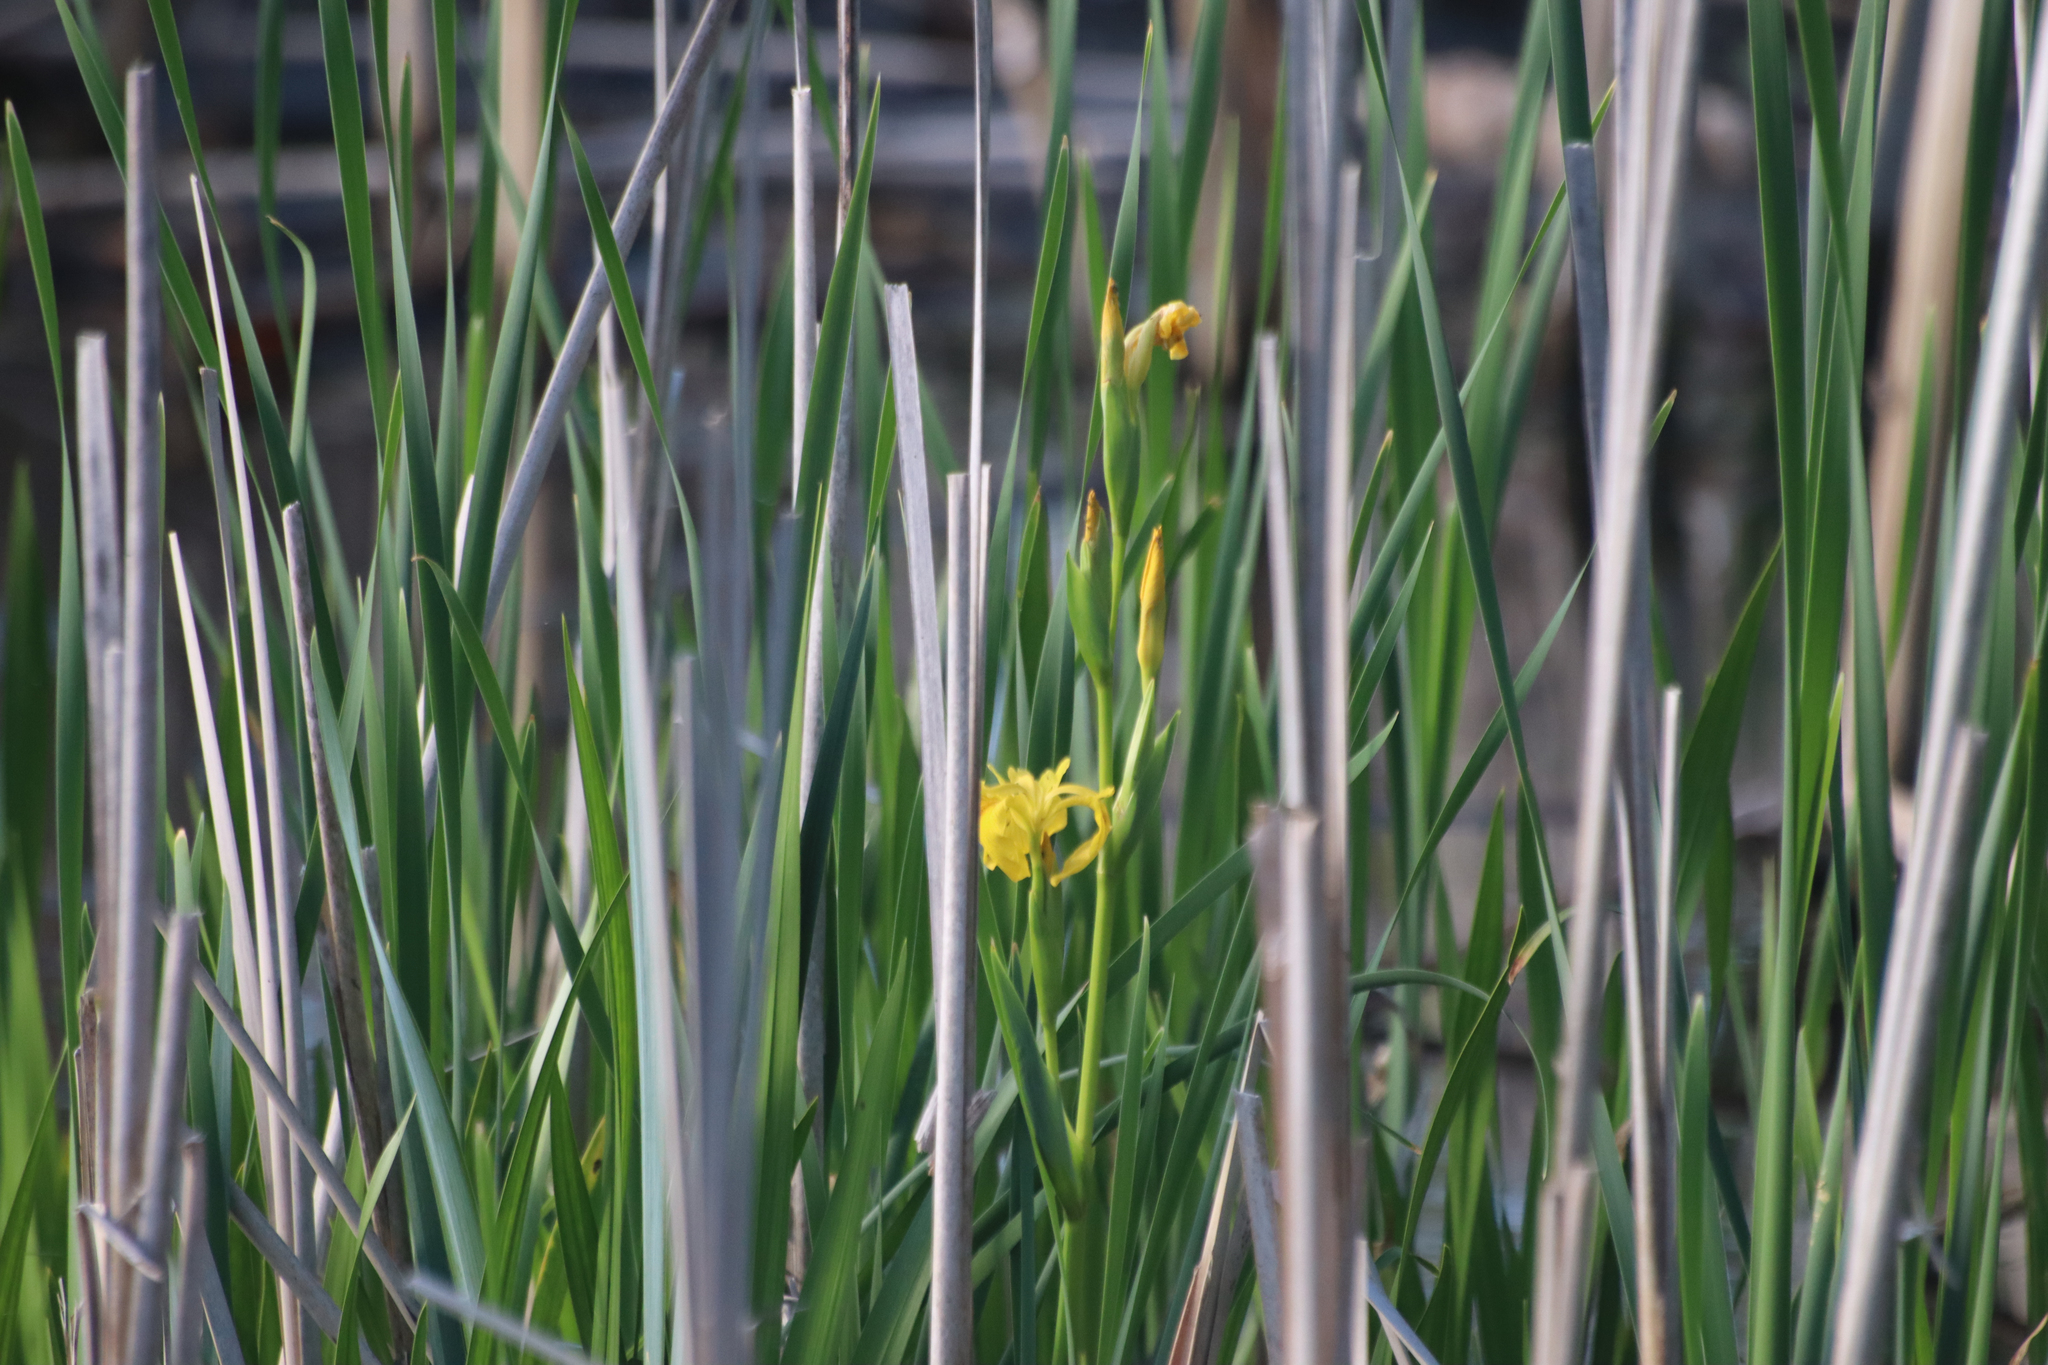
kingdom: Plantae
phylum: Tracheophyta
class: Liliopsida
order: Asparagales
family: Iridaceae
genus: Iris
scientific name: Iris pseudacorus
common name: Yellow flag
